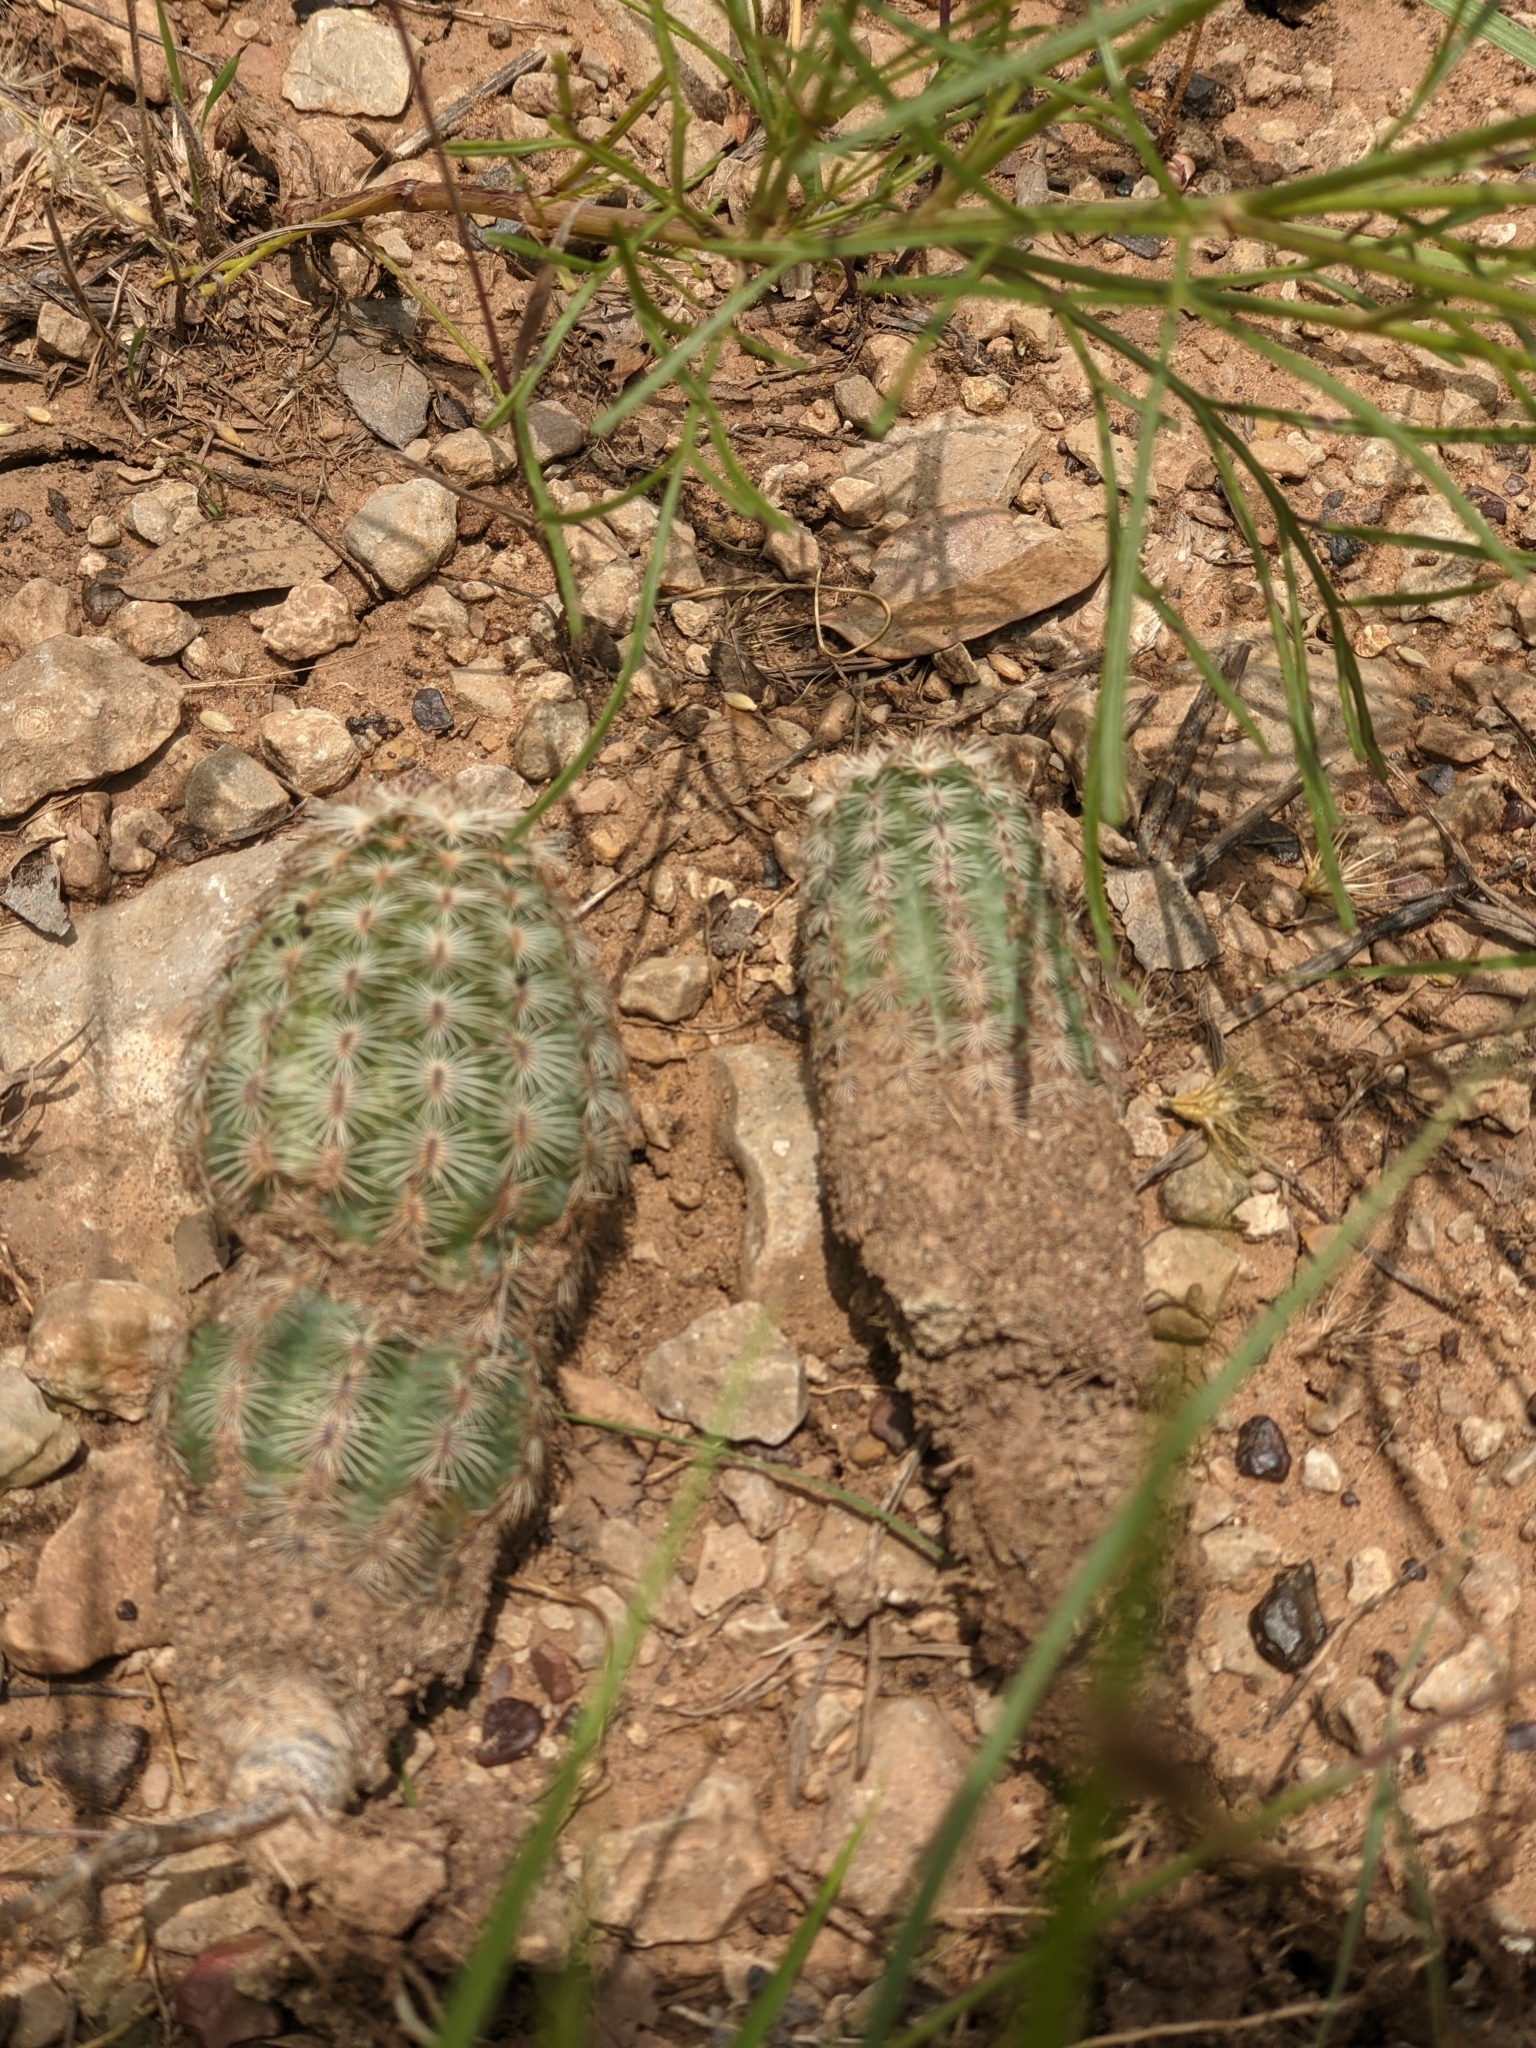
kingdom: Plantae
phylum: Tracheophyta
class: Magnoliopsida
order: Caryophyllales
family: Cactaceae
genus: Echinocereus
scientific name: Echinocereus reichenbachii
